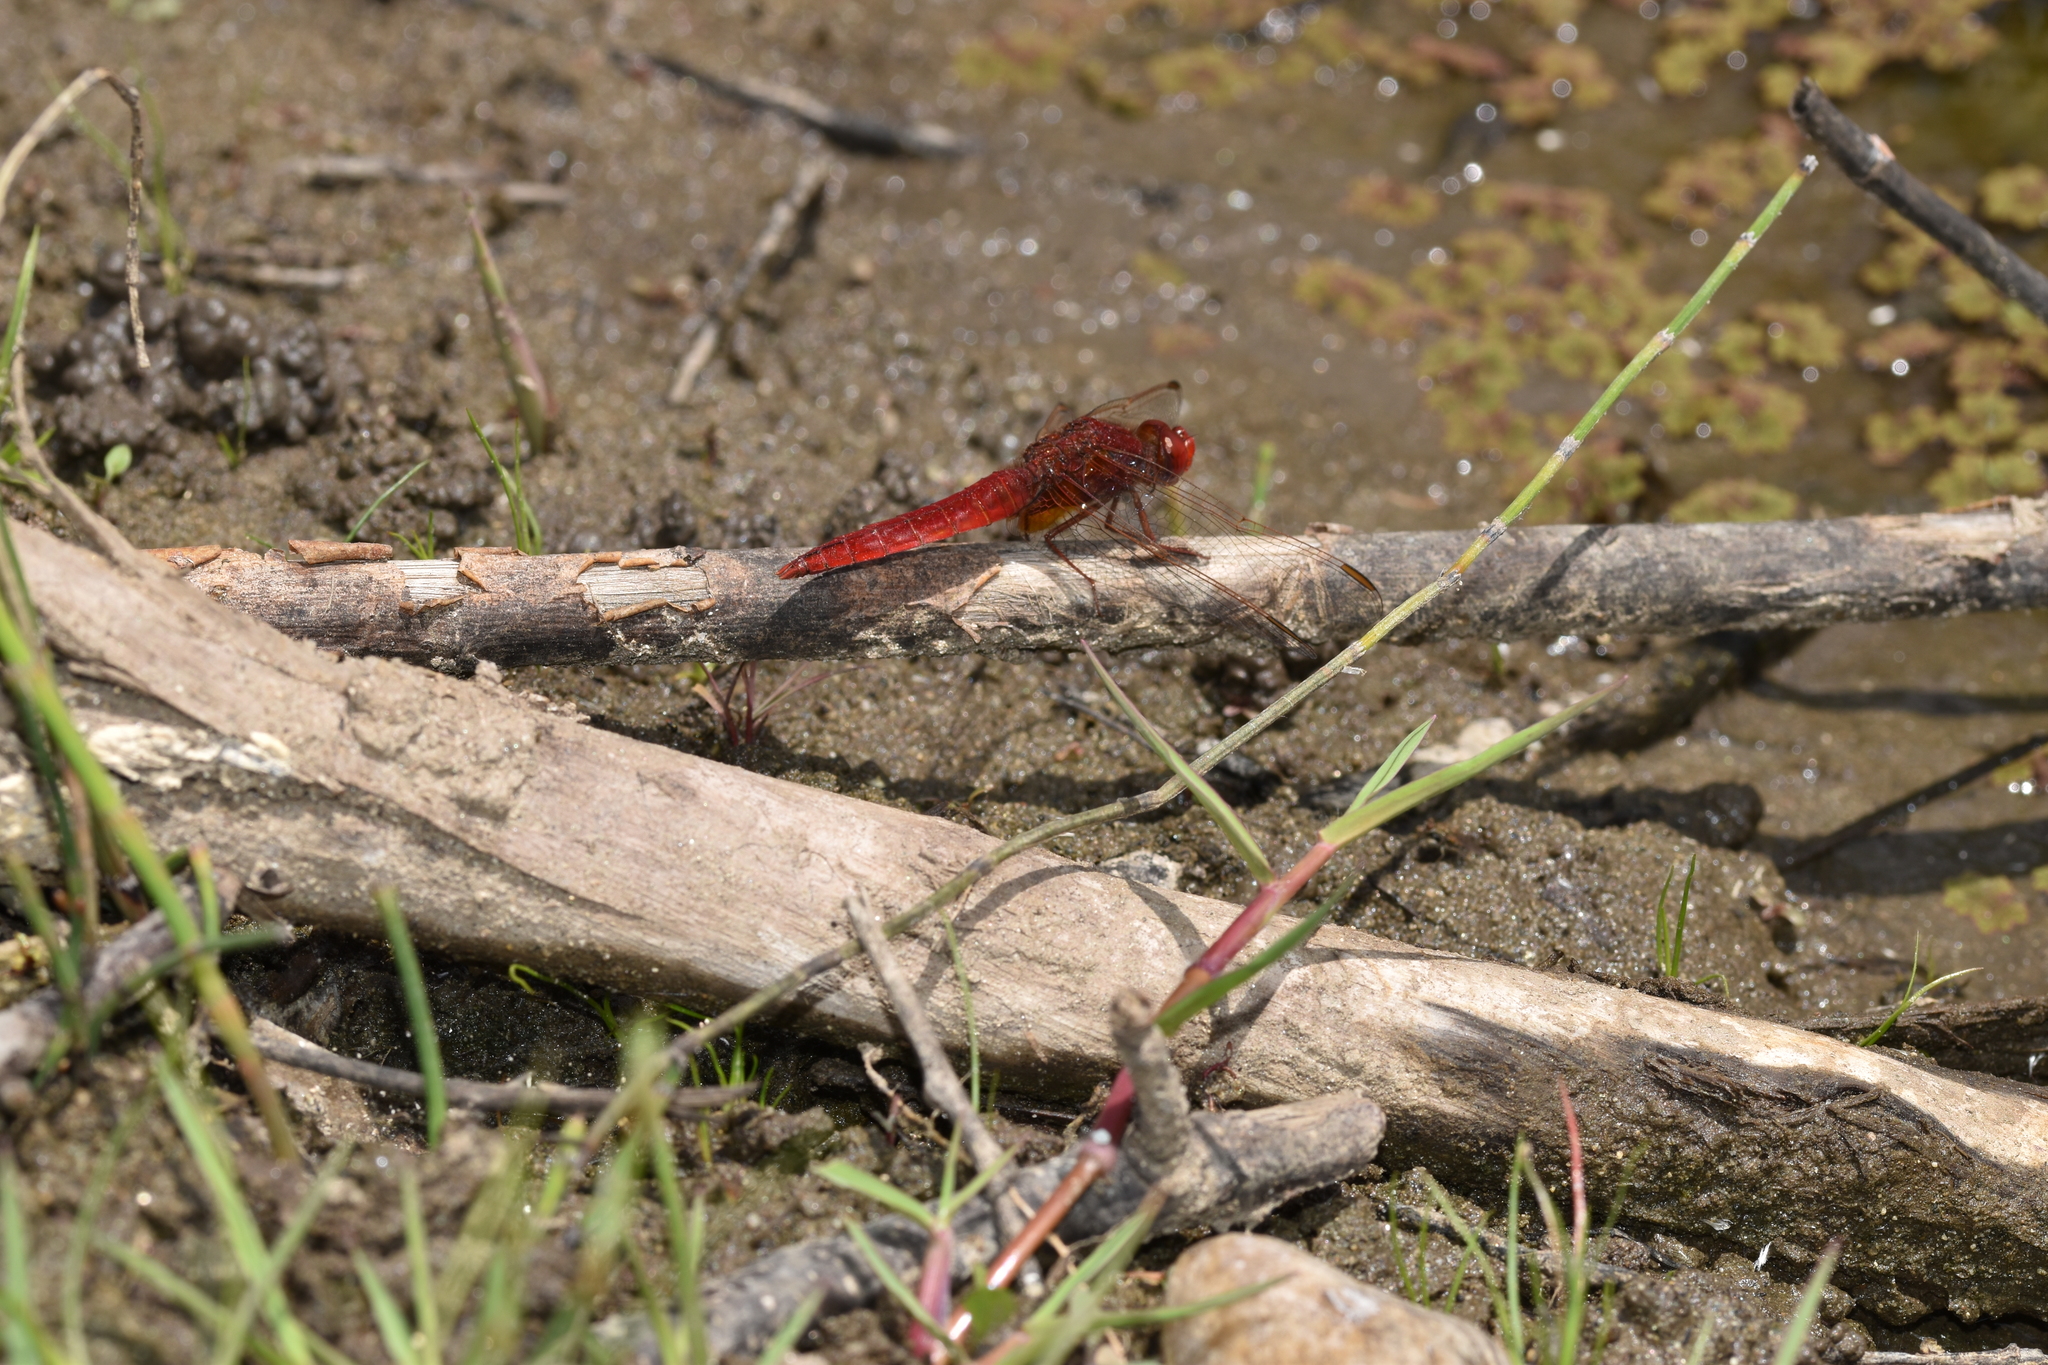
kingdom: Animalia
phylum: Arthropoda
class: Insecta
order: Odonata
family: Libellulidae
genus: Crocothemis
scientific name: Crocothemis erythraea
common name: Scarlet dragonfly
